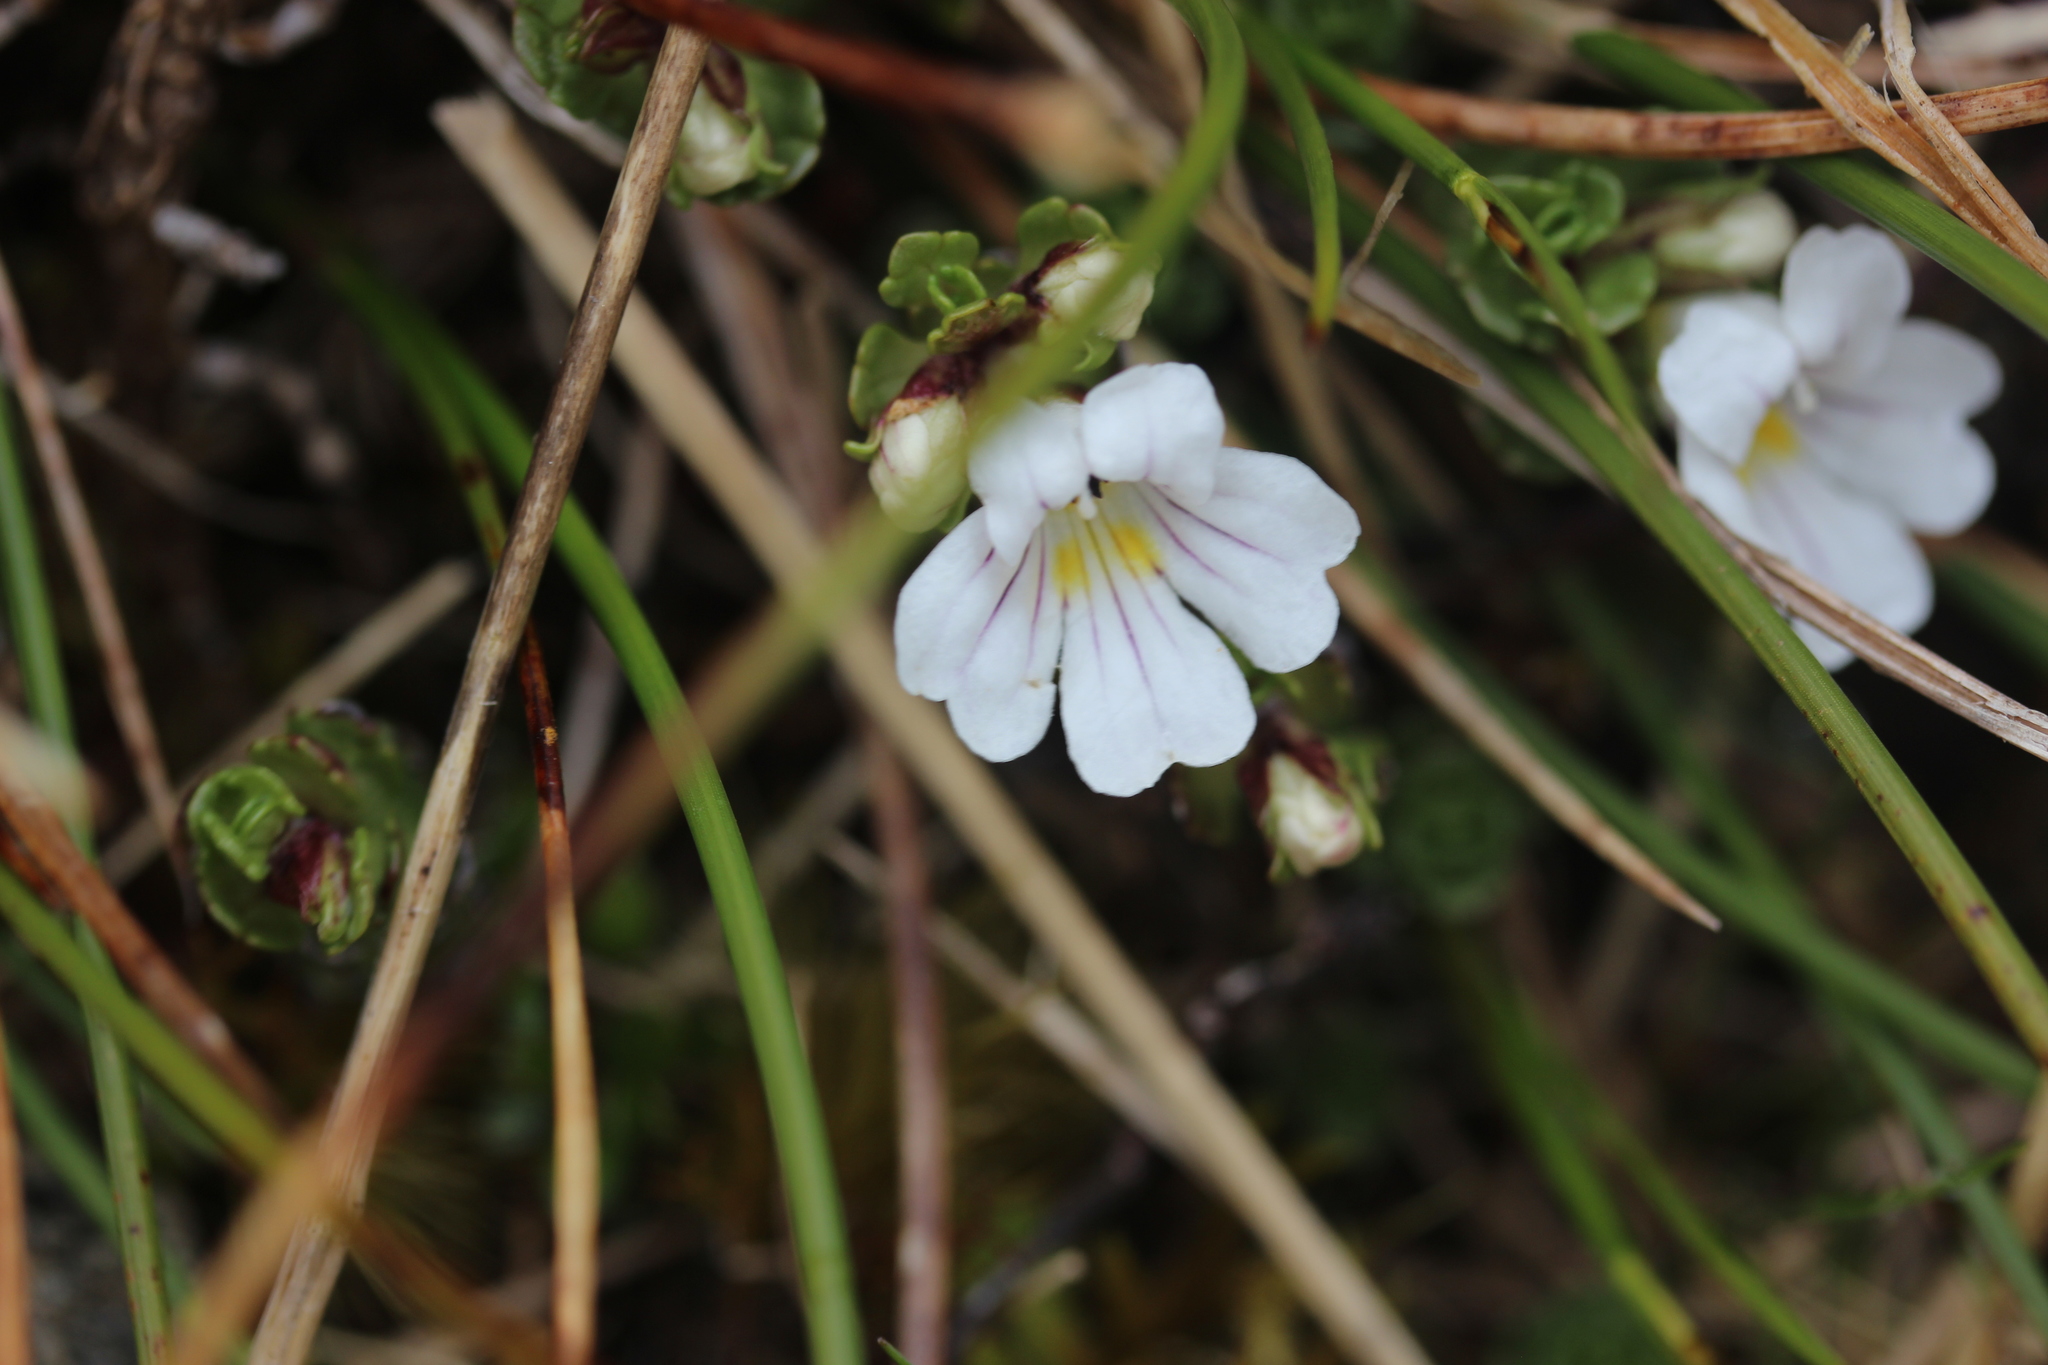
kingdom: Plantae
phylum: Tracheophyta
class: Magnoliopsida
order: Lamiales
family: Orobanchaceae
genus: Euphrasia
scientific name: Euphrasia drucei
